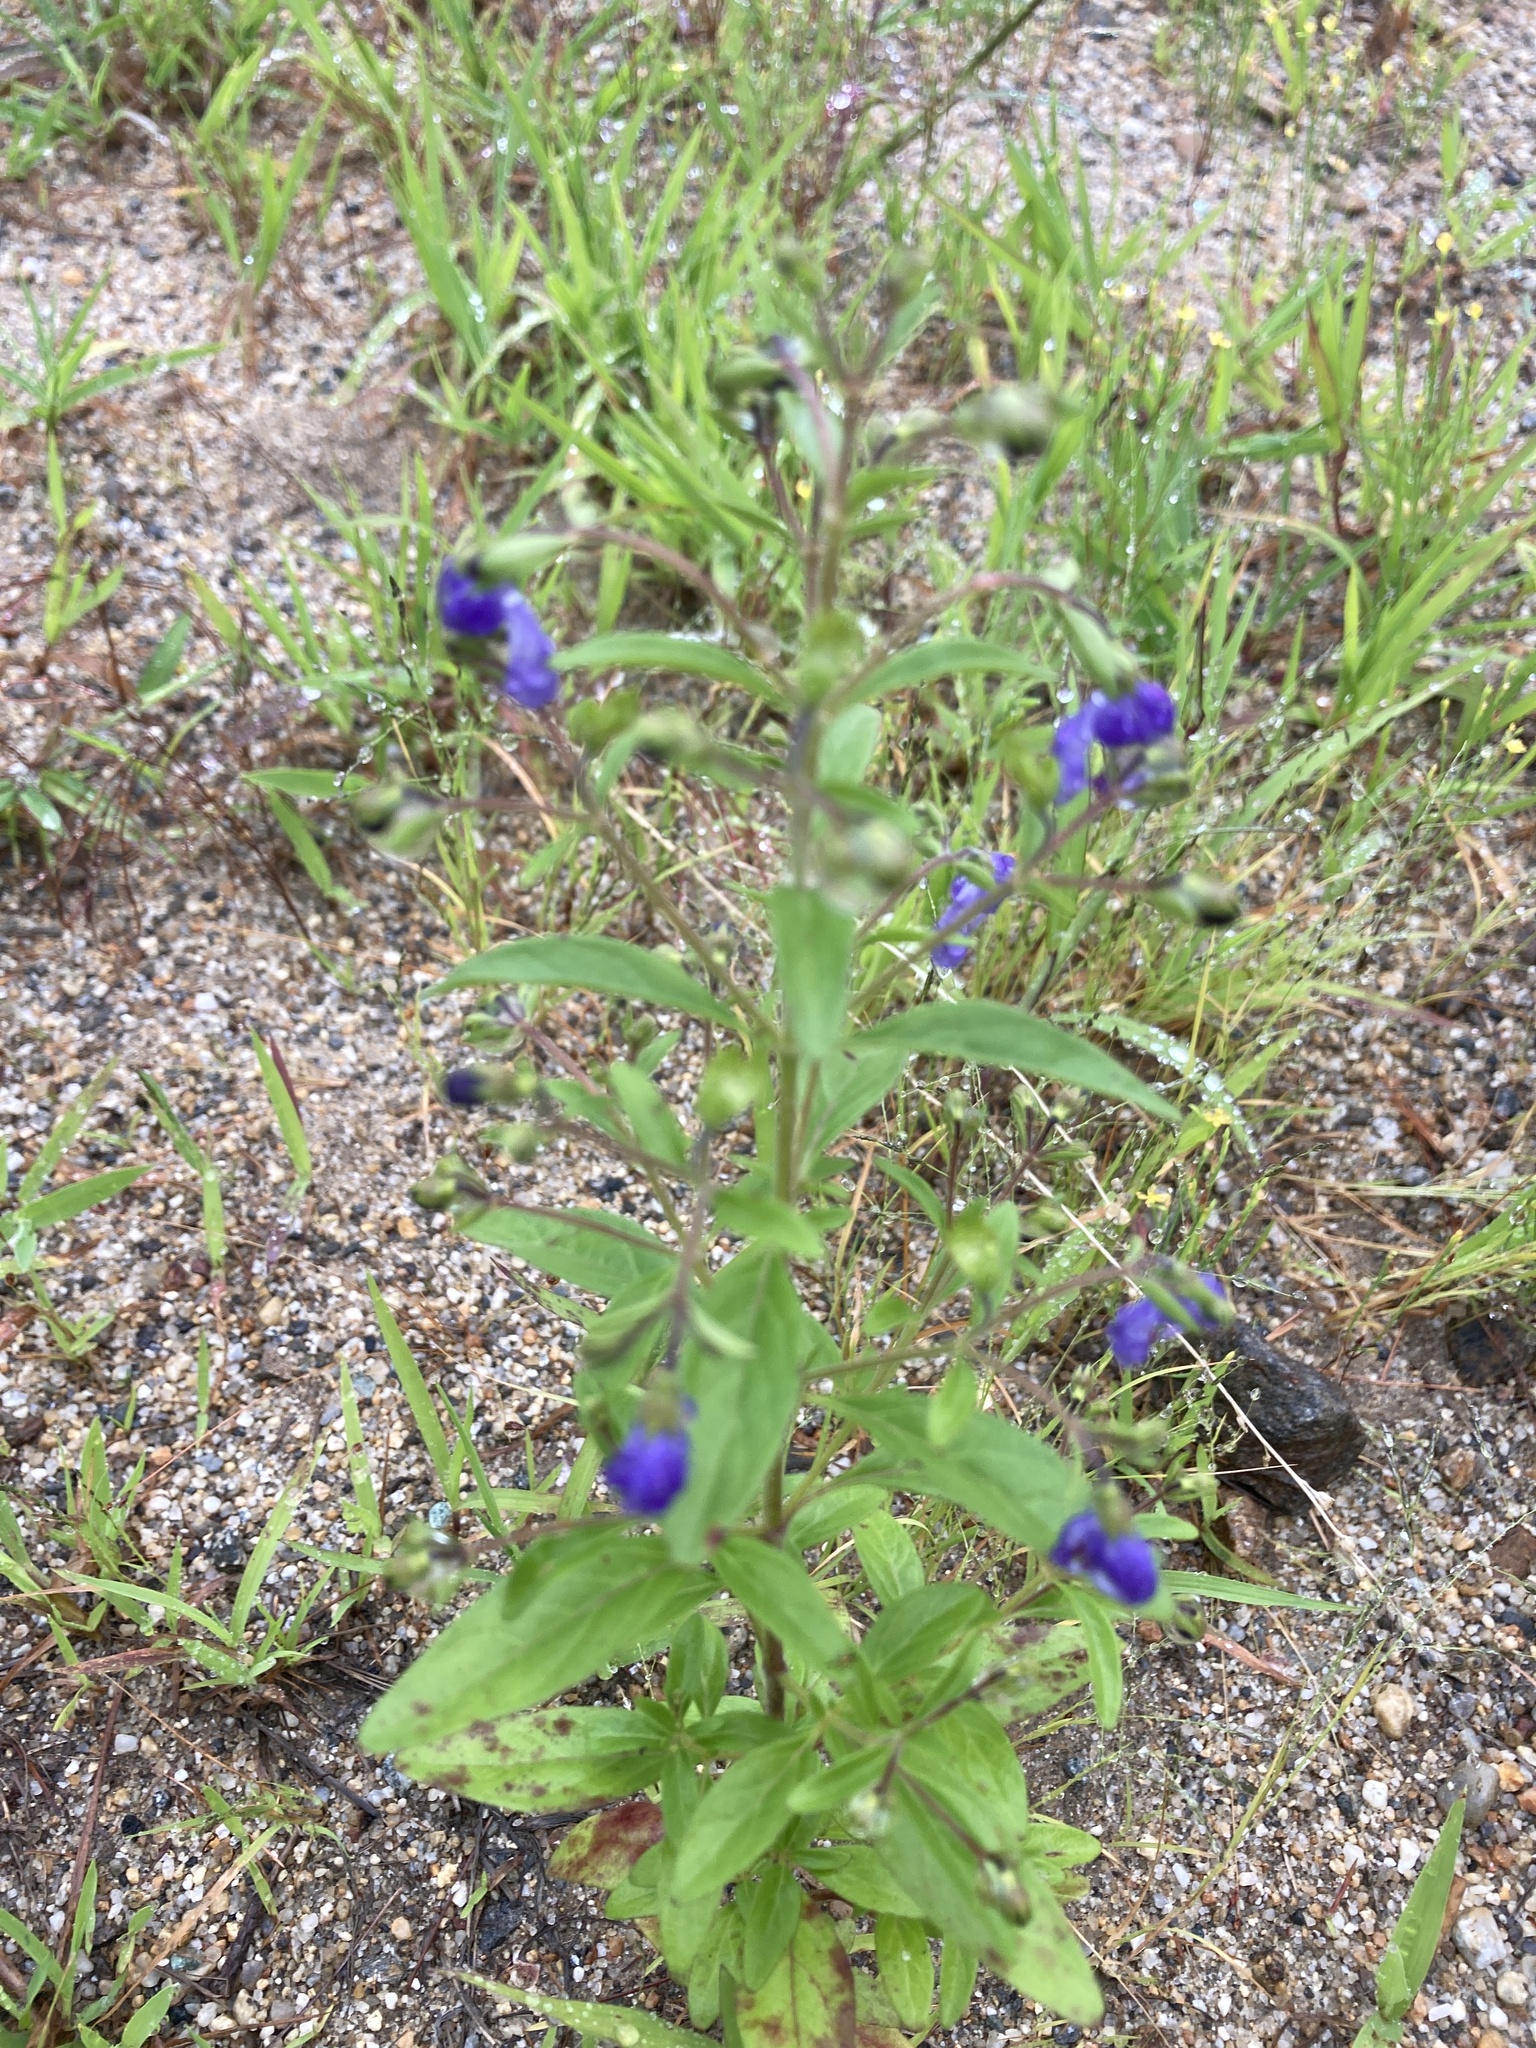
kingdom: Plantae
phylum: Tracheophyta
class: Magnoliopsida
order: Lamiales
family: Lamiaceae
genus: Trichostema
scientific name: Trichostema dichotomum
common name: Bastard pennyroyal
